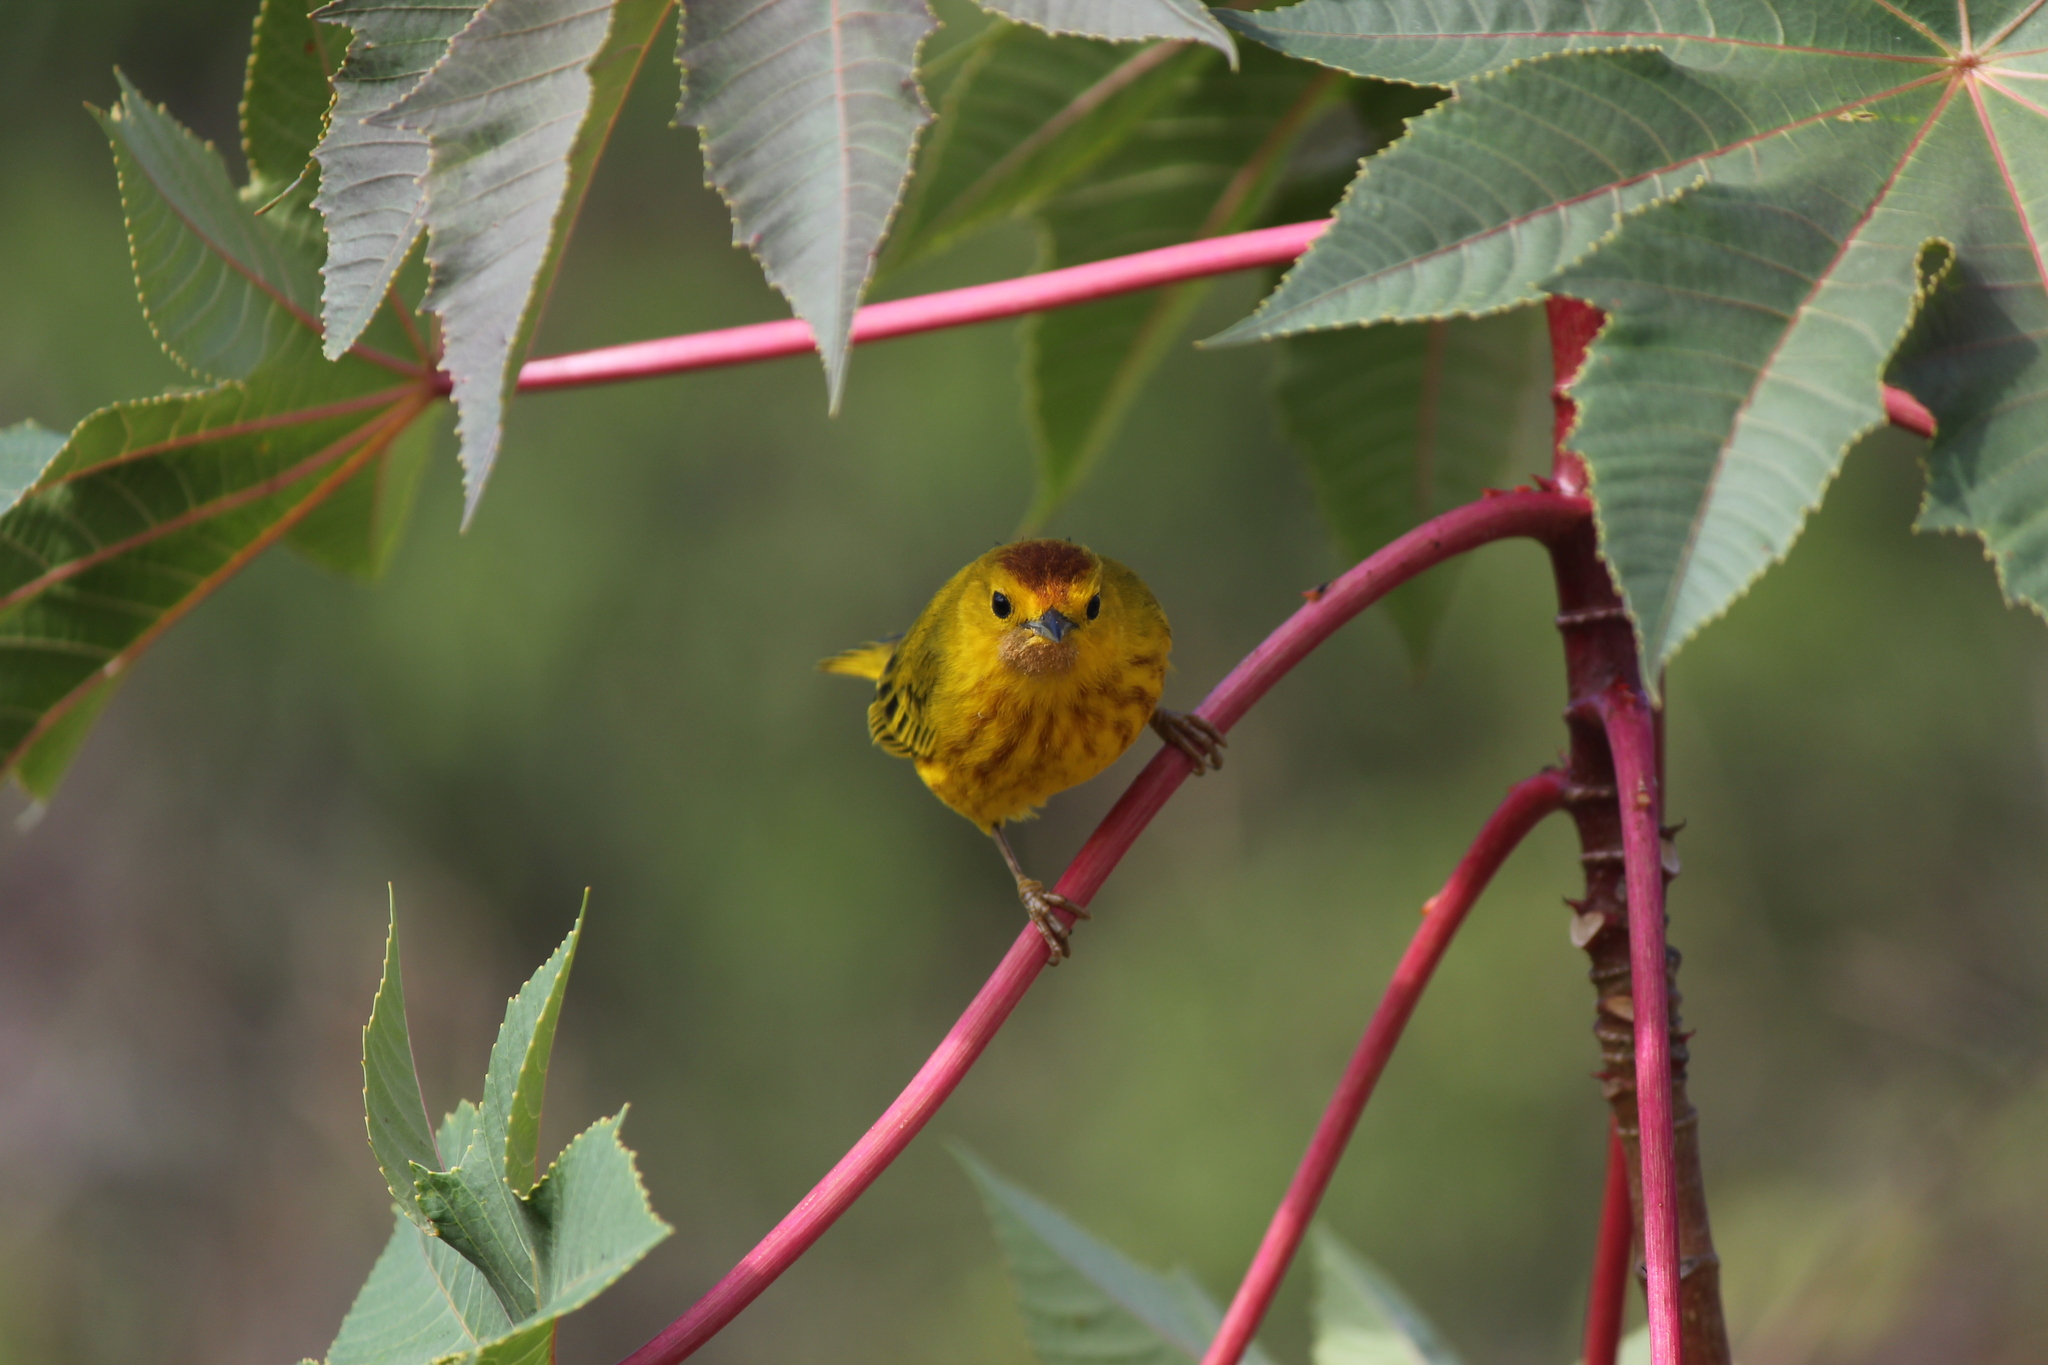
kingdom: Animalia
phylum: Chordata
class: Aves
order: Passeriformes
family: Parulidae
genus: Setophaga
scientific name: Setophaga petechia
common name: Yellow warbler
